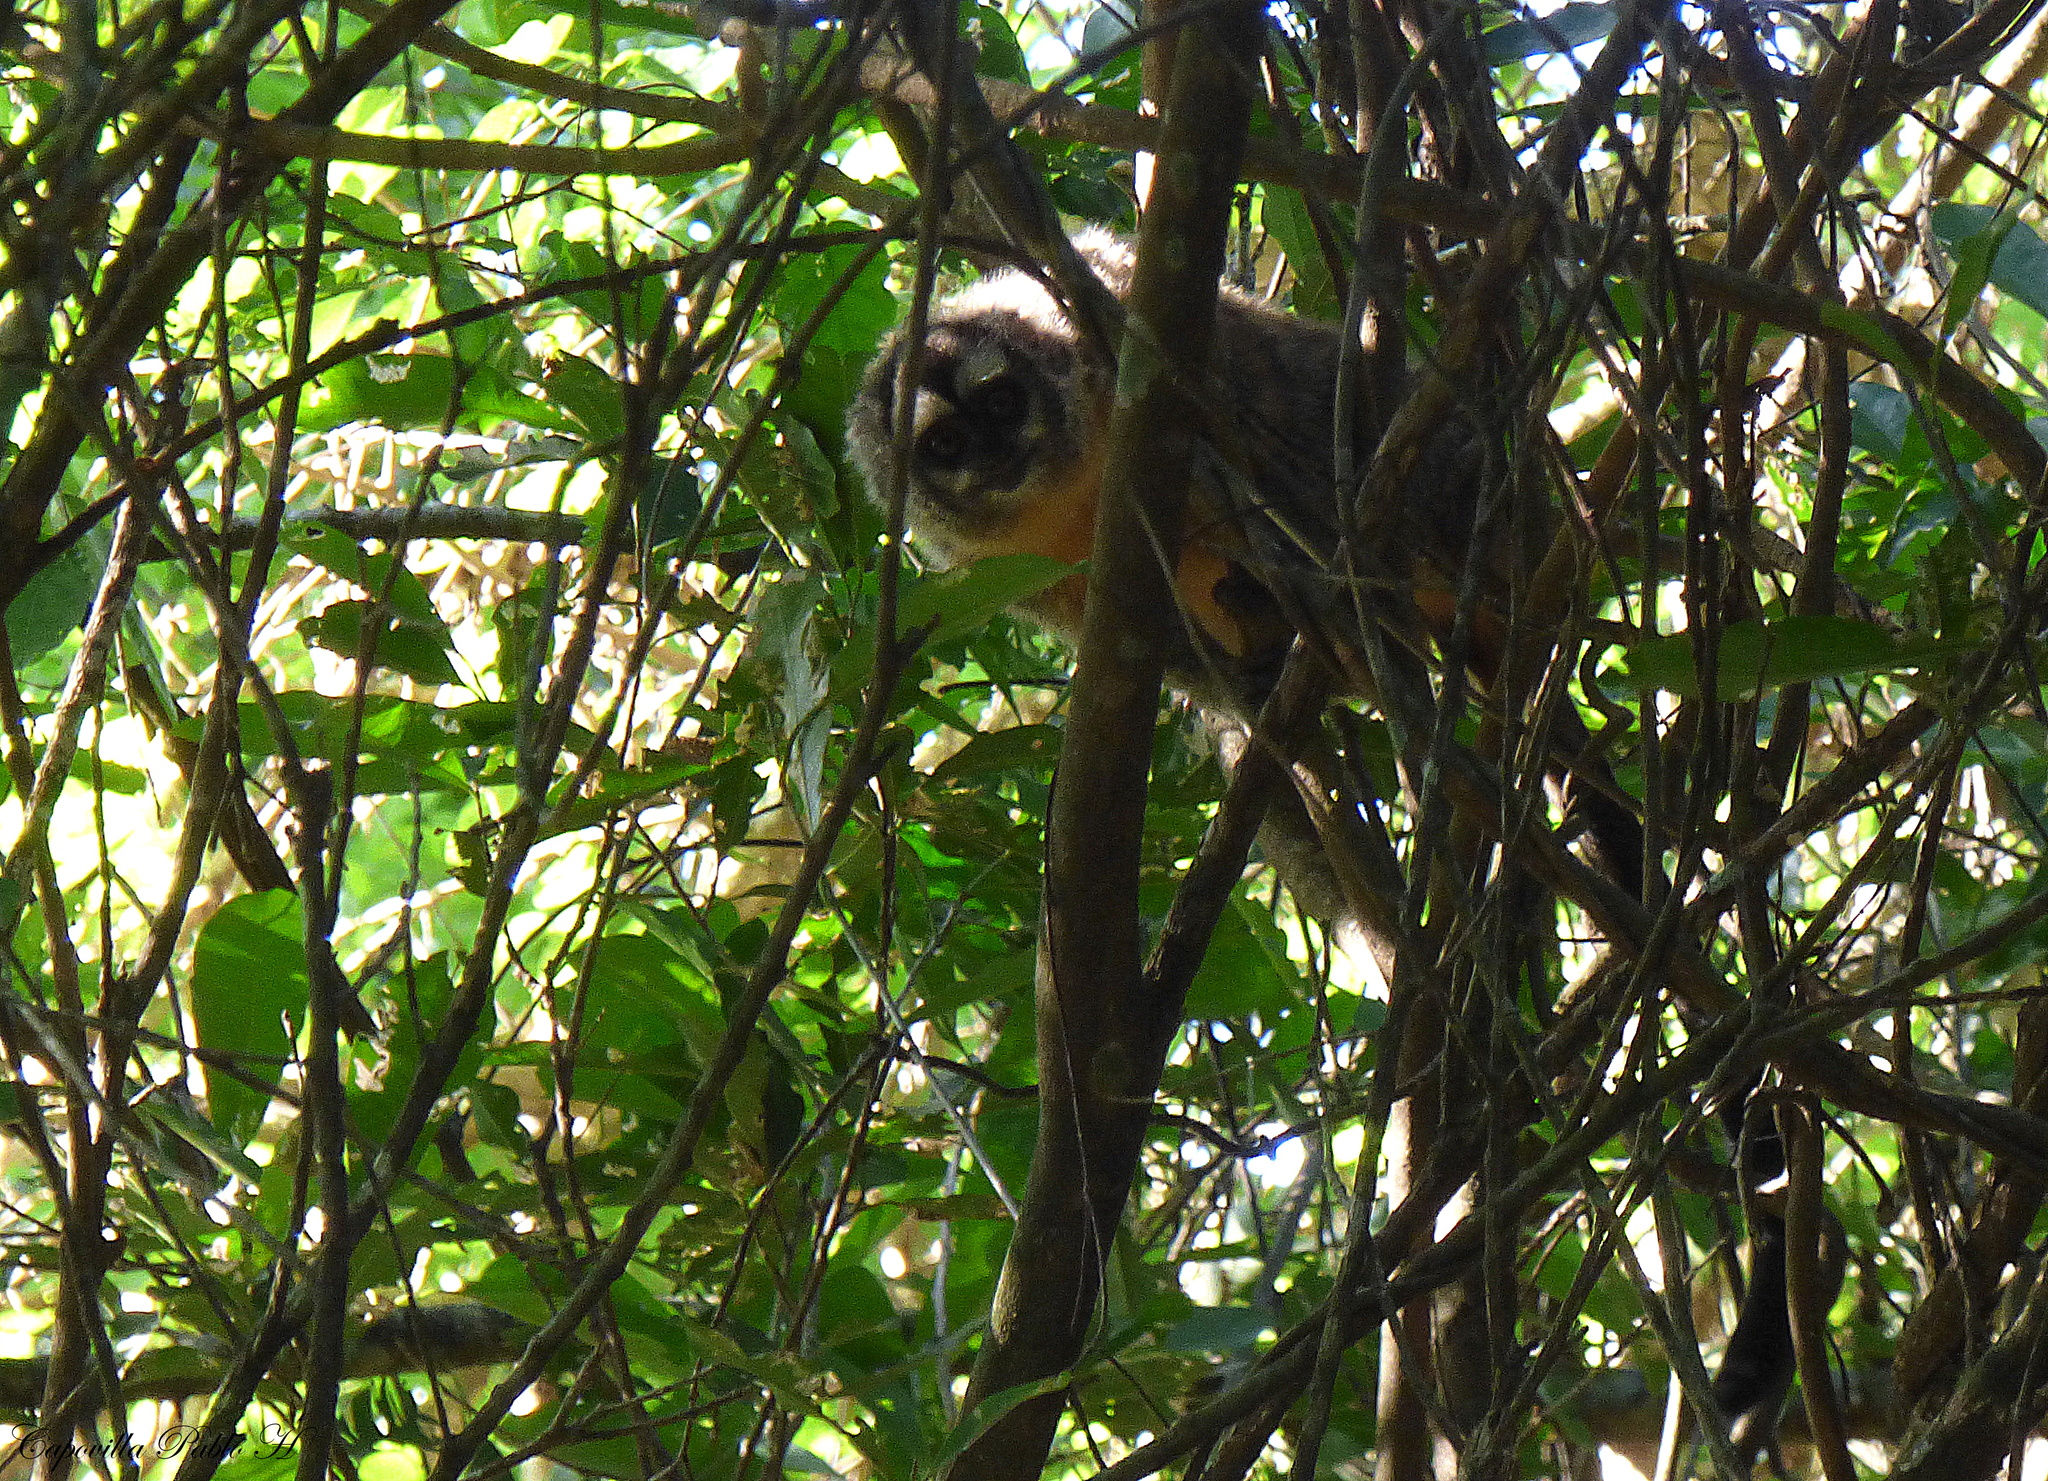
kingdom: Animalia
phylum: Chordata
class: Mammalia
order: Primates
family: Aotidae
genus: Aotus
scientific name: Aotus azarae
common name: Azara's night monkey
